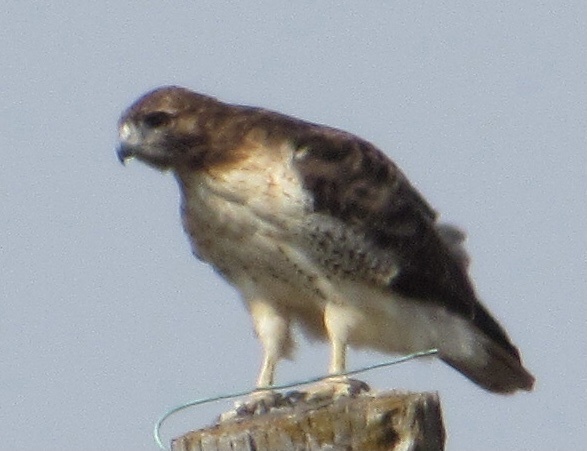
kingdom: Animalia
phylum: Chordata
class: Aves
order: Accipitriformes
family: Accipitridae
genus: Buteo
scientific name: Buteo jamaicensis
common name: Red-tailed hawk
